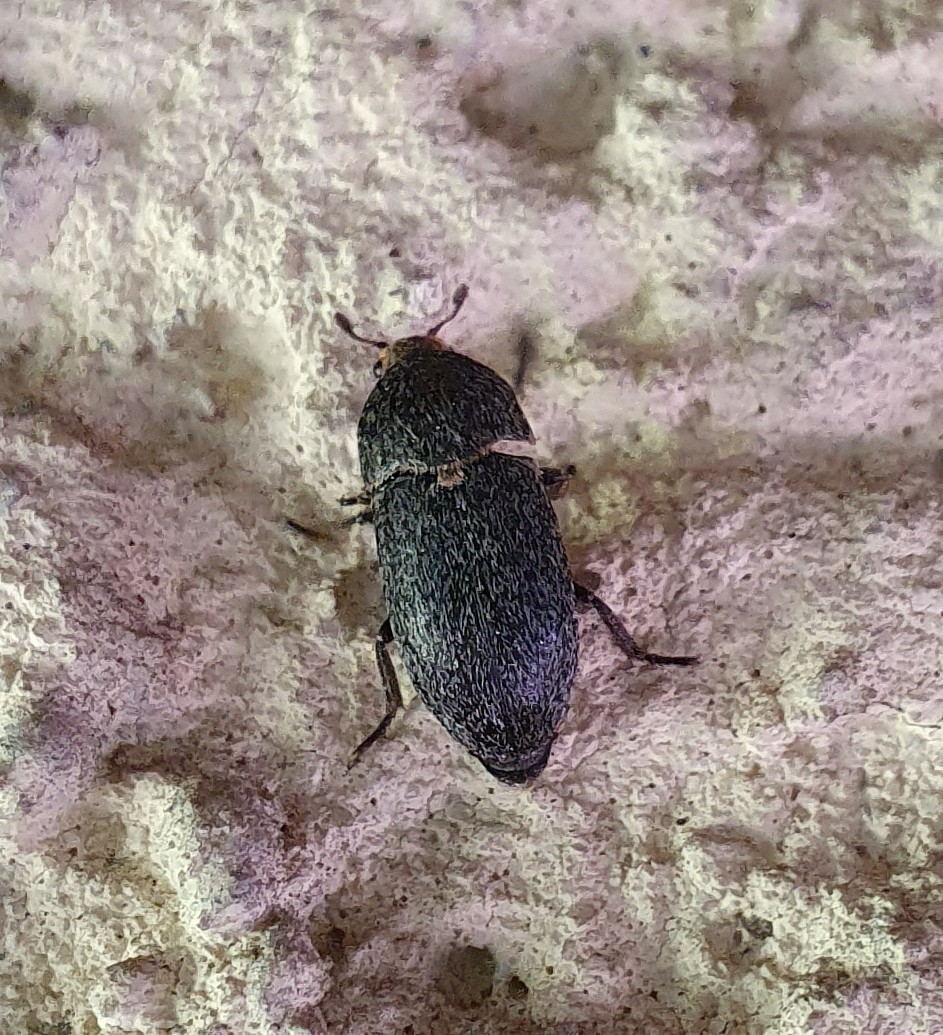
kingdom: Animalia
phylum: Arthropoda
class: Insecta
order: Coleoptera
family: Dermestidae
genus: Dermestes
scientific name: Dermestes laniarius
